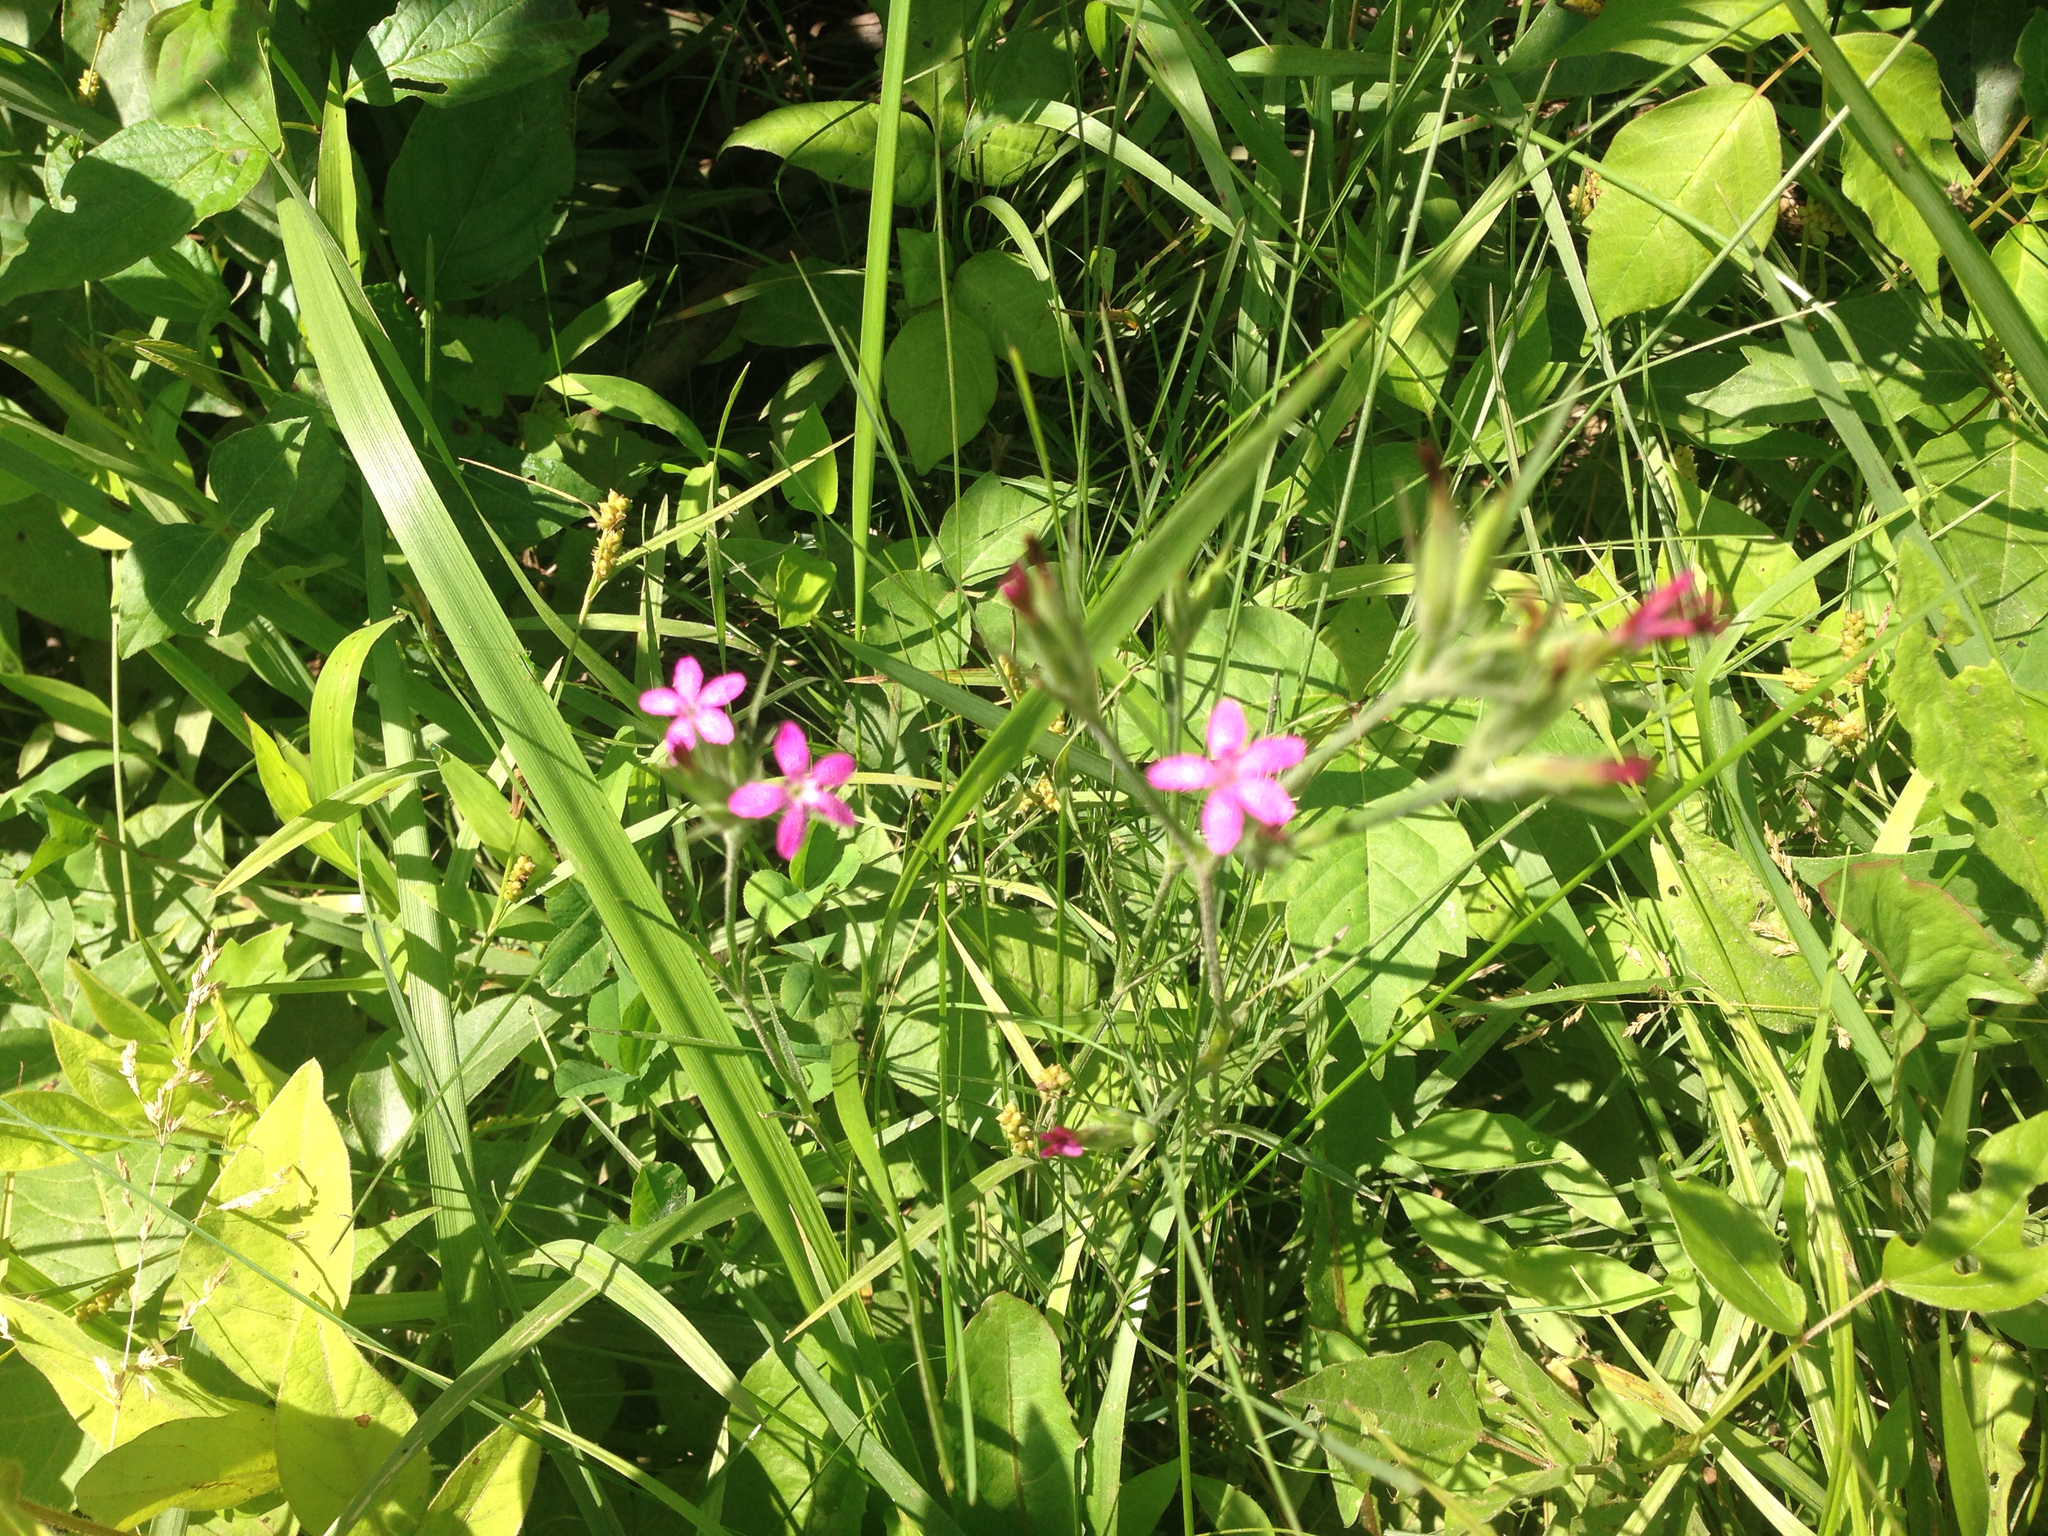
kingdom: Plantae
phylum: Tracheophyta
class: Magnoliopsida
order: Caryophyllales
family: Caryophyllaceae
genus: Dianthus
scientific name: Dianthus armeria
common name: Deptford pink
